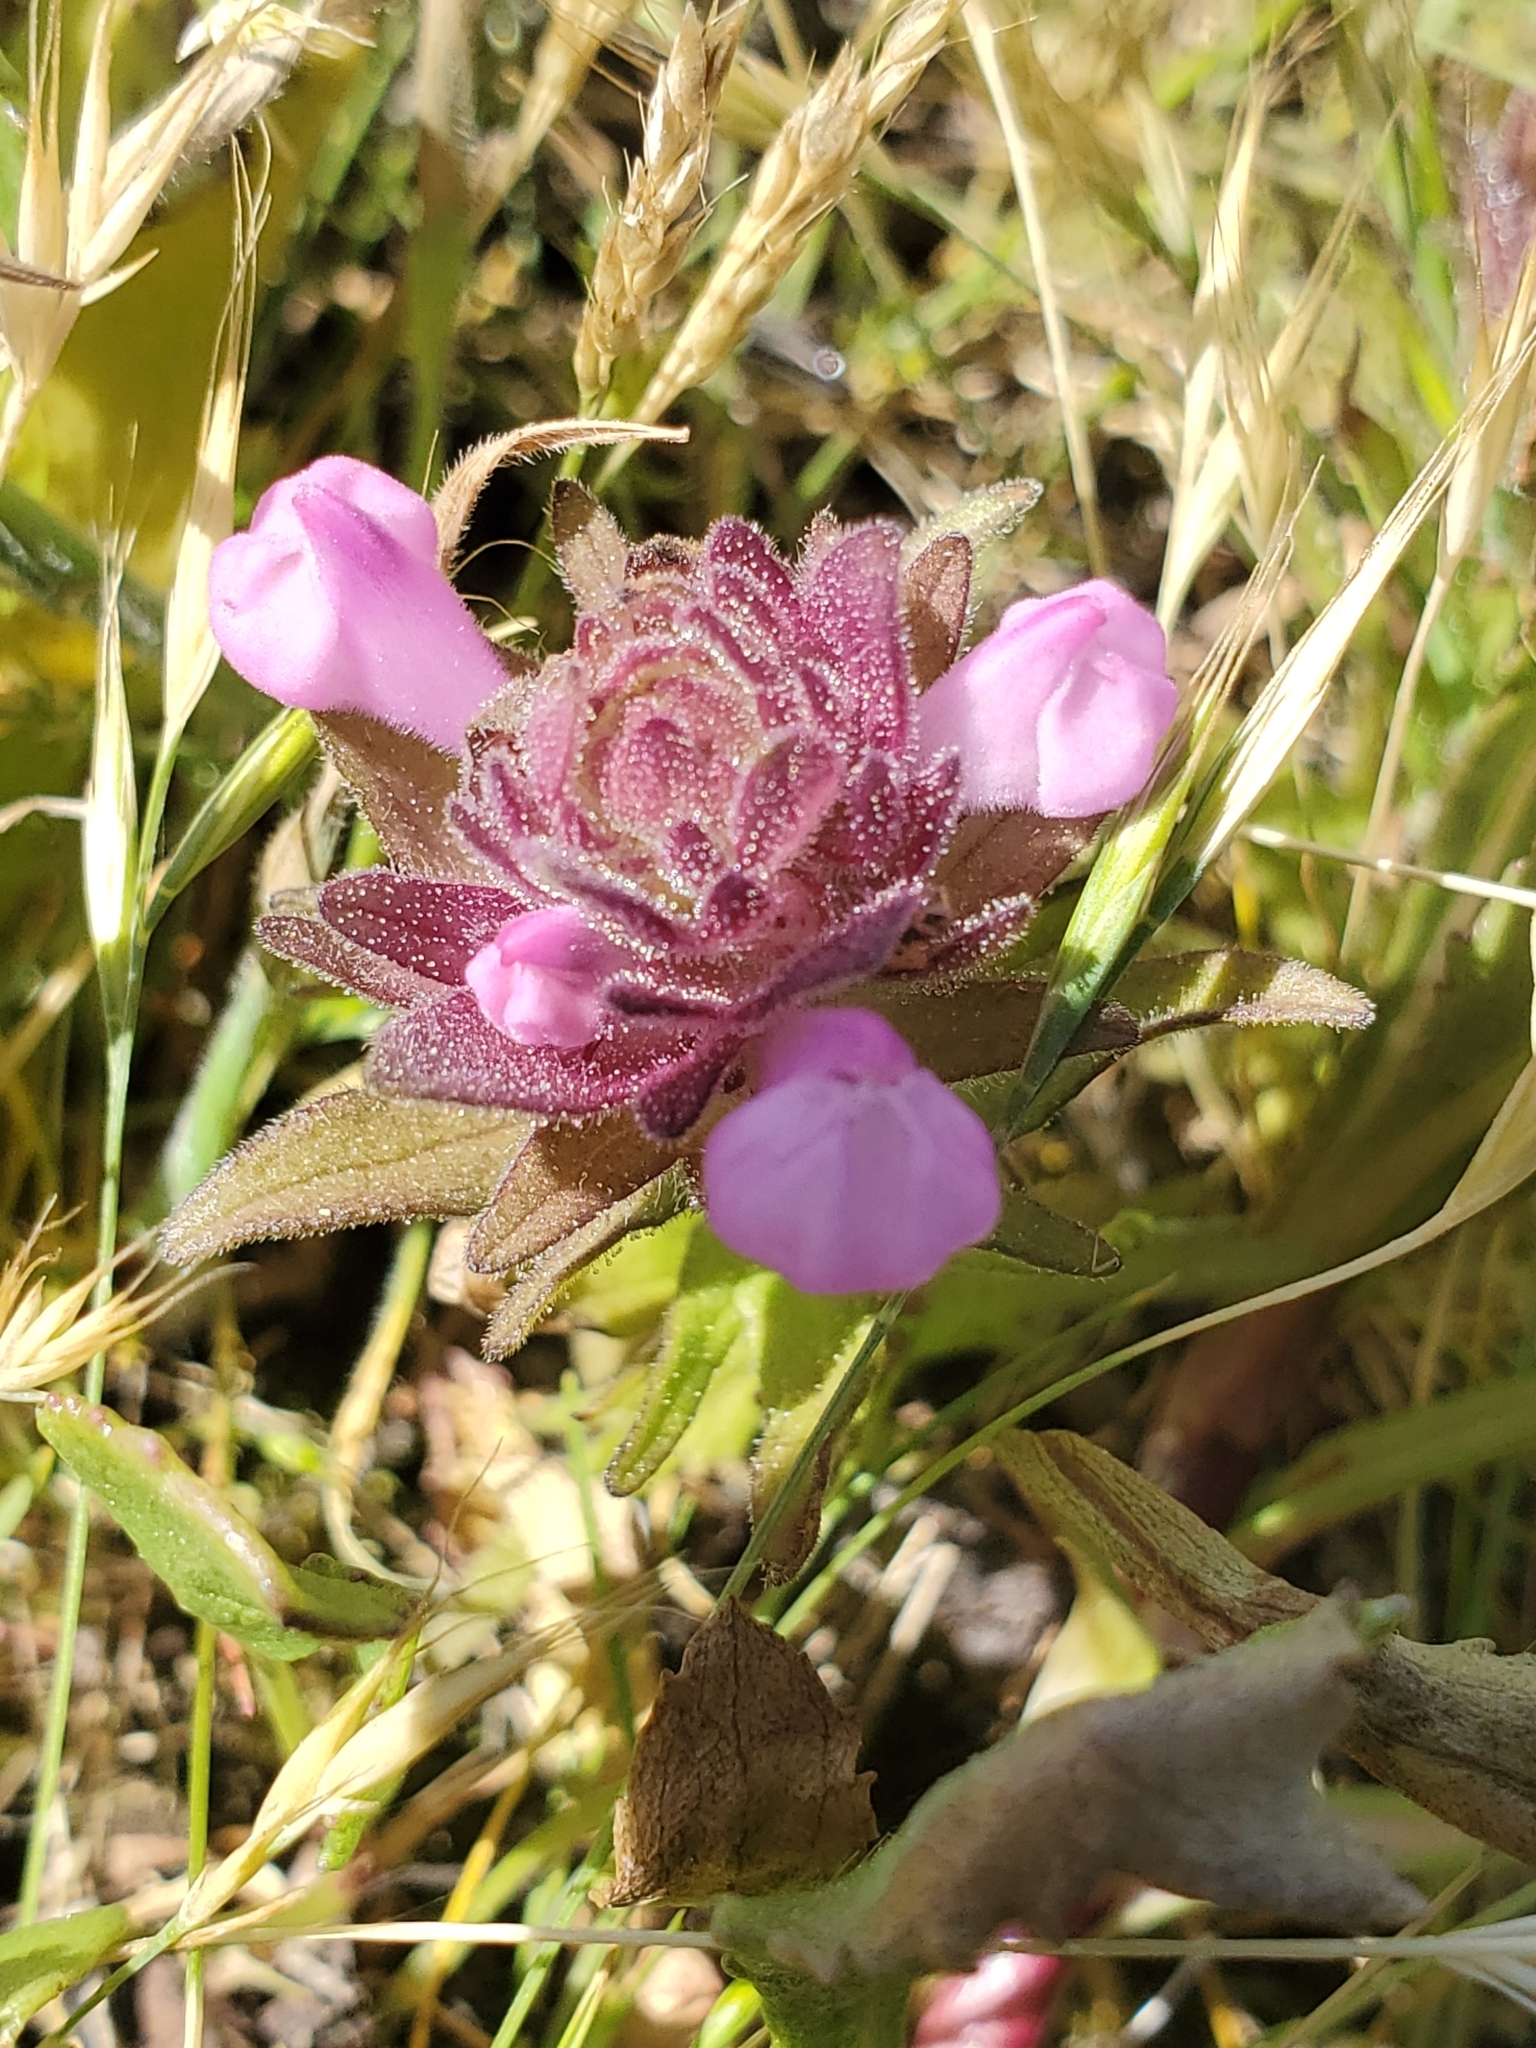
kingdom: Plantae
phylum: Tracheophyta
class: Magnoliopsida
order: Lamiales
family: Orobanchaceae
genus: Orthocarpus
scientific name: Orthocarpus bracteosus
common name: Rosy owl's-clover
